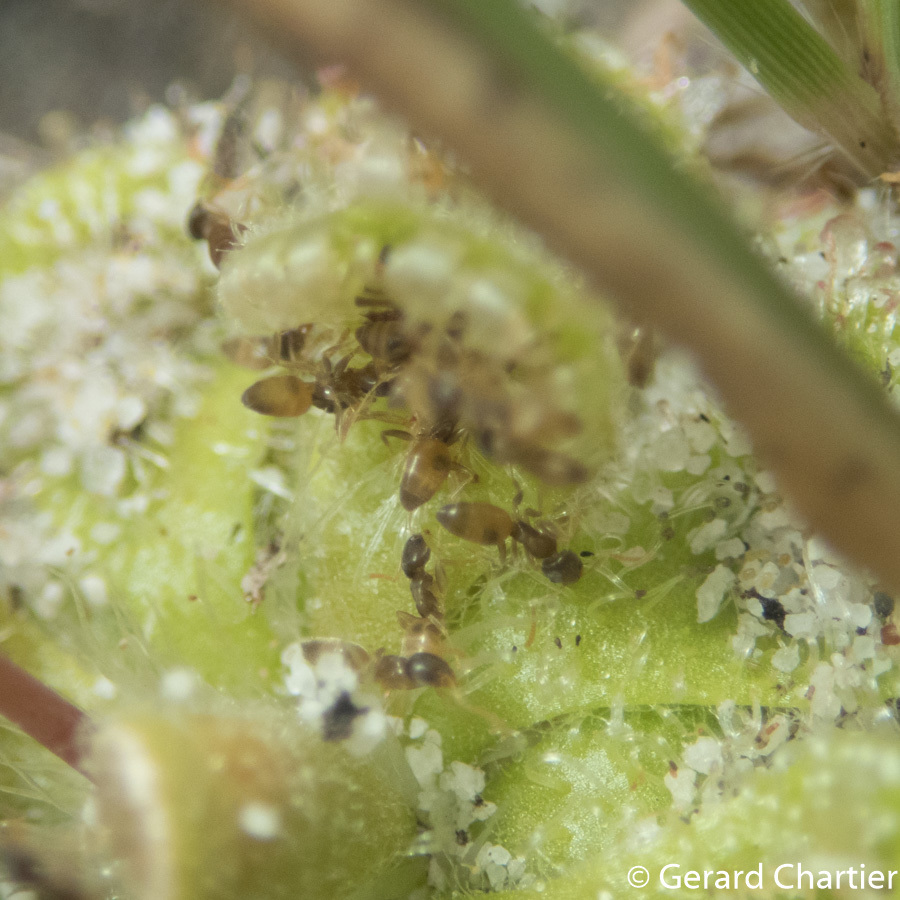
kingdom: Animalia
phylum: Arthropoda
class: Insecta
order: Hymenoptera
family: Formicidae
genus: Tapinoma
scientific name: Tapinoma melanocephalum
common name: Ghost ant
